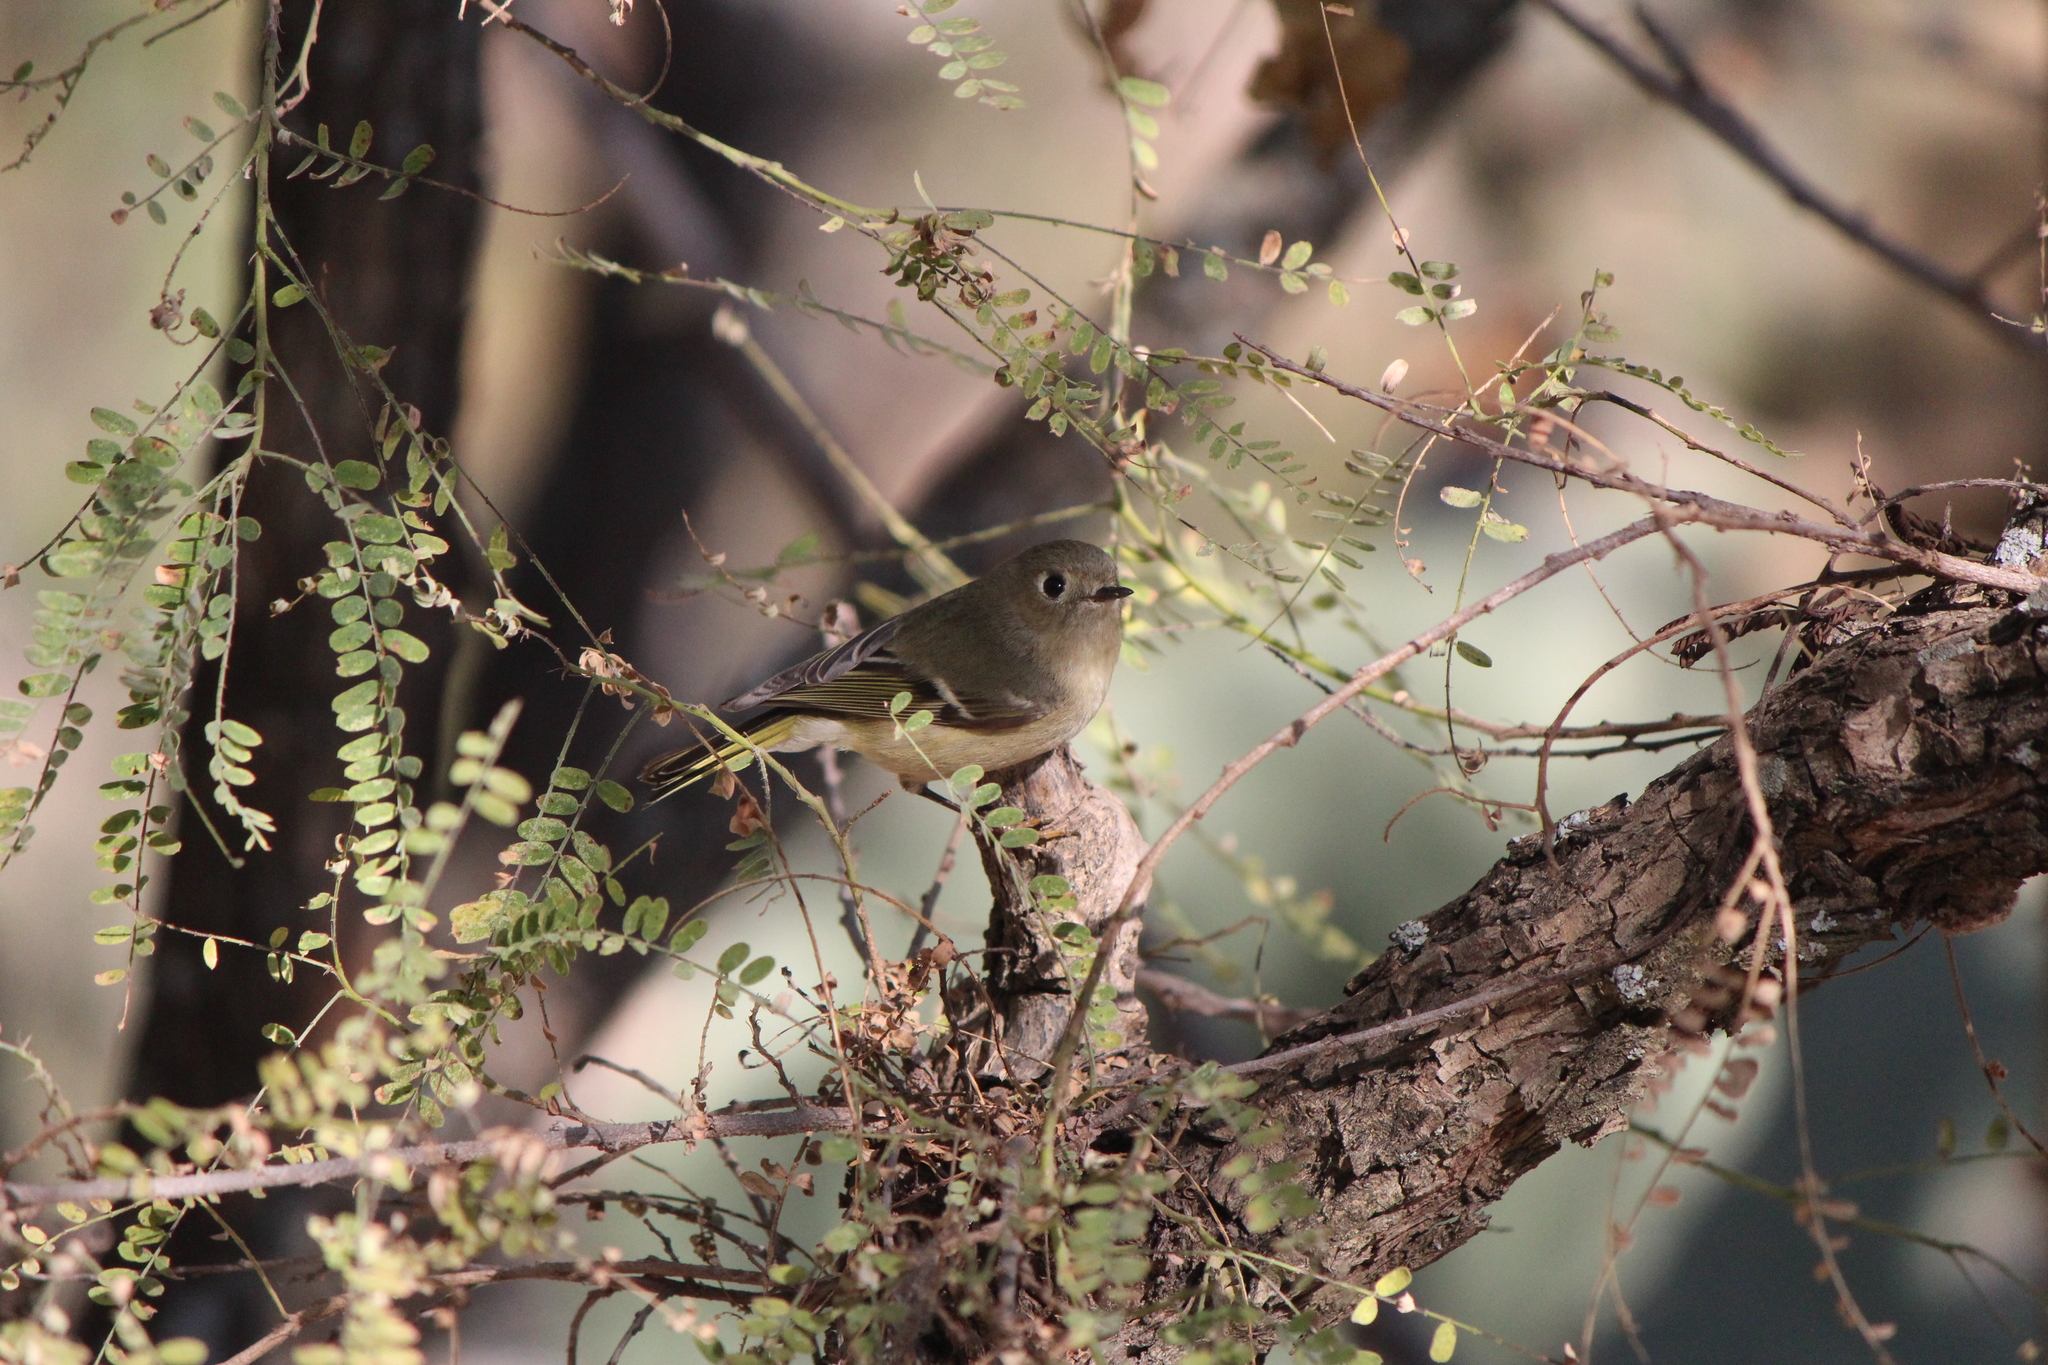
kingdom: Animalia
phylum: Chordata
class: Aves
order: Passeriformes
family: Regulidae
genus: Regulus
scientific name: Regulus calendula
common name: Ruby-crowned kinglet
